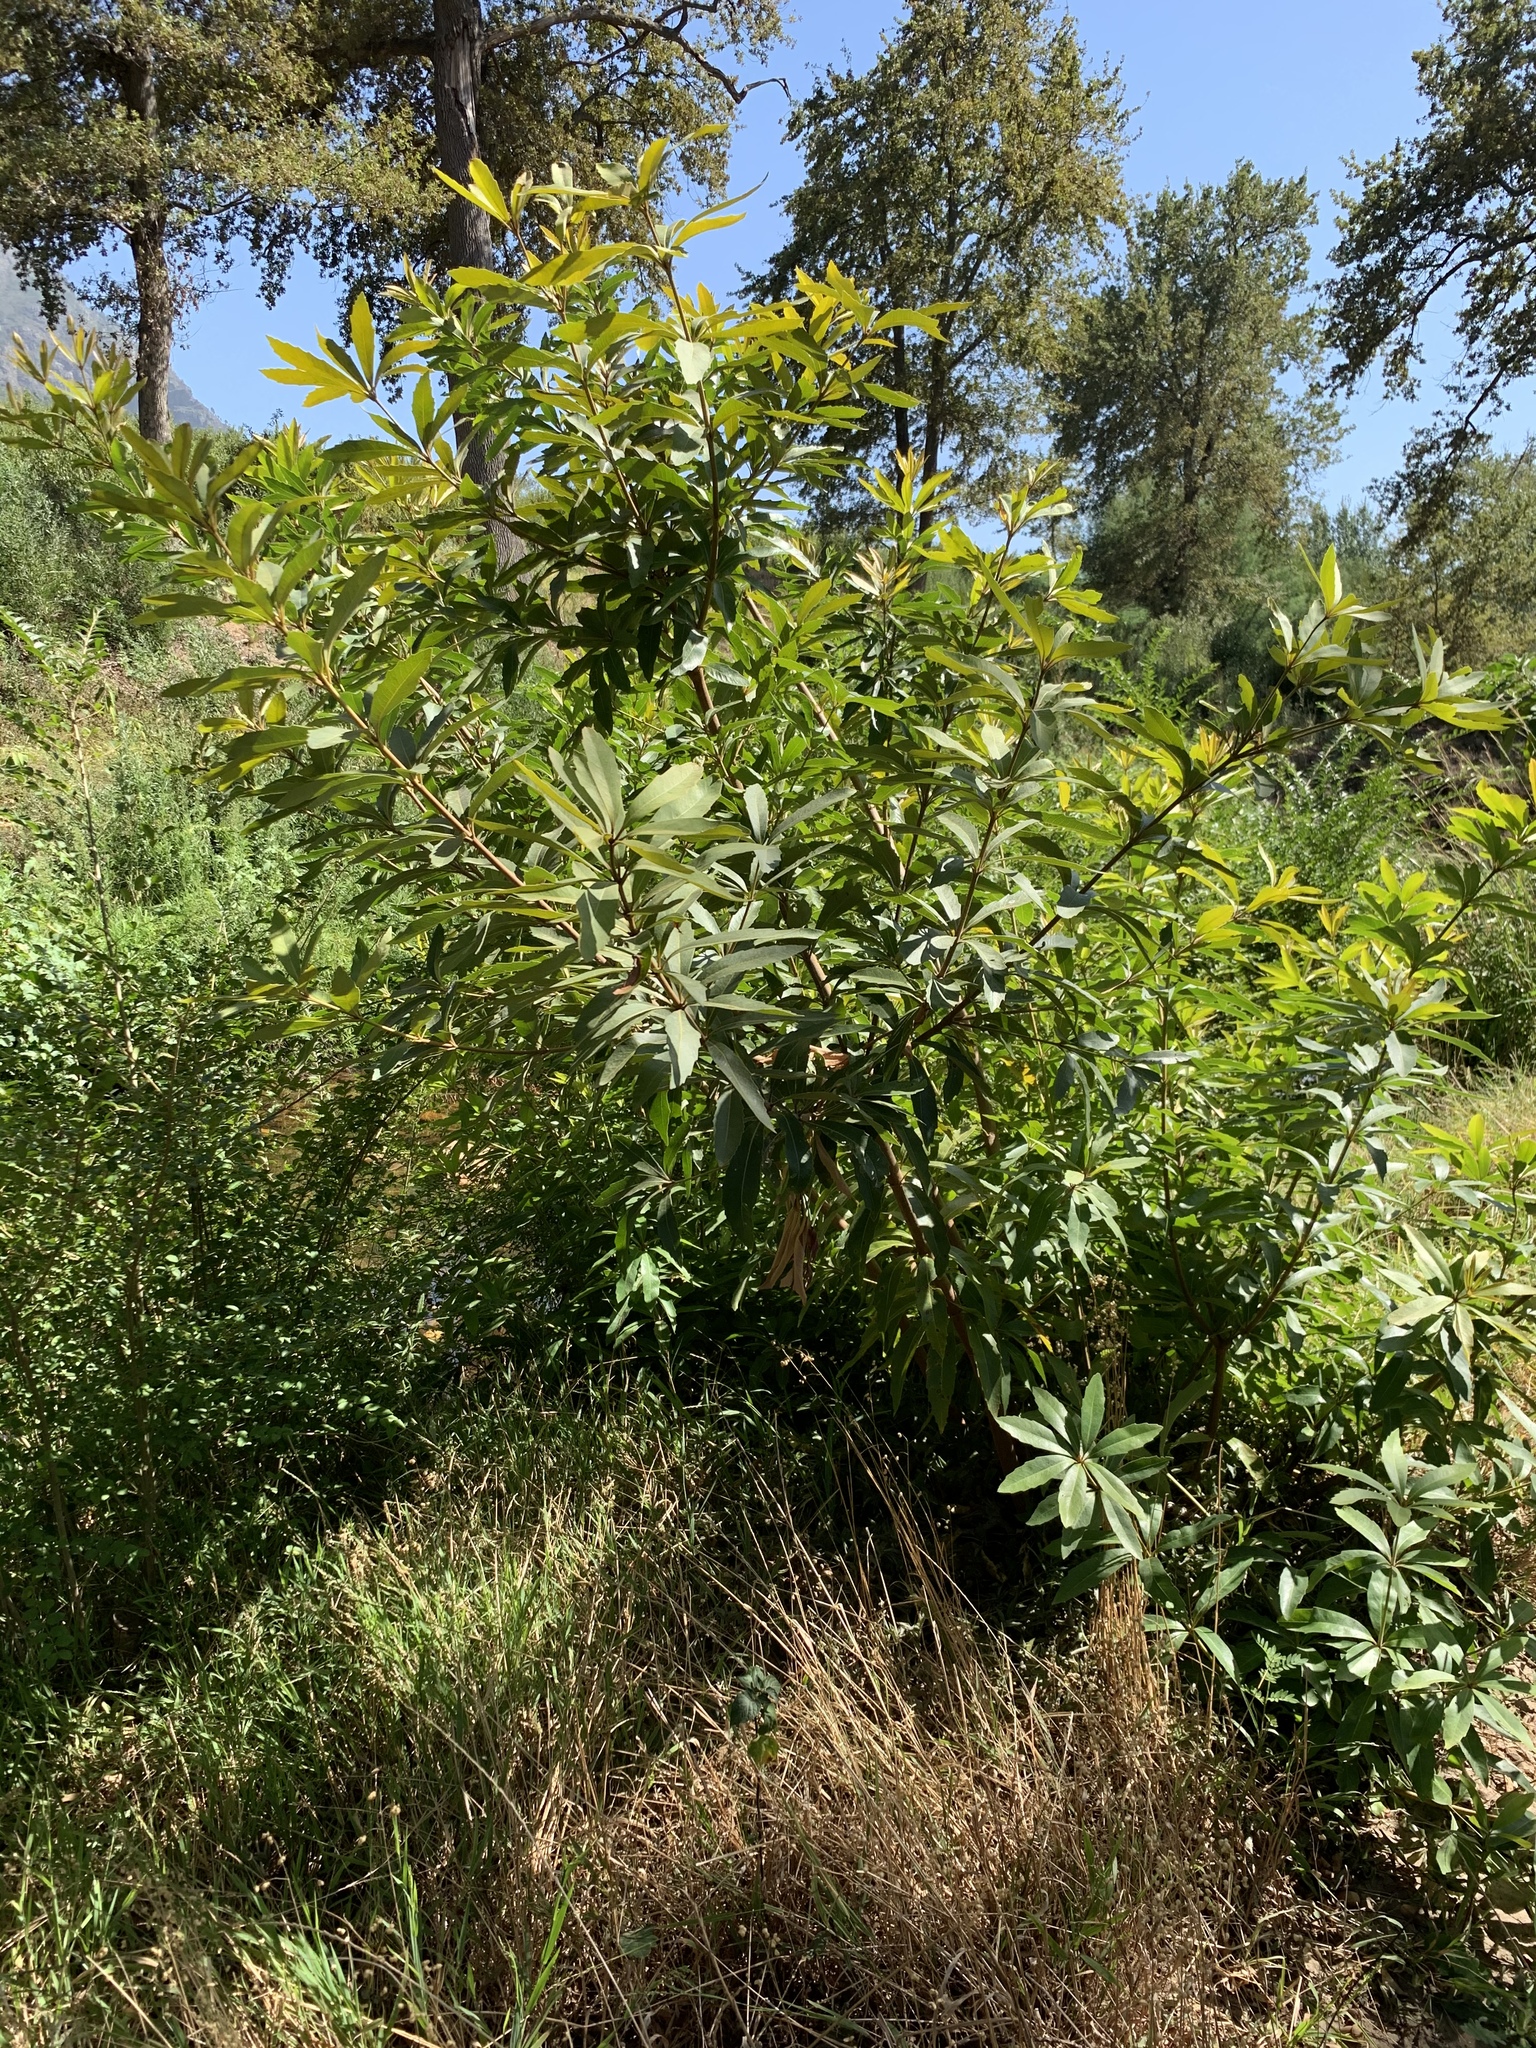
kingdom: Plantae
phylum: Tracheophyta
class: Magnoliopsida
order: Proteales
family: Proteaceae
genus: Brabejum
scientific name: Brabejum stellatifolium
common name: Wild almond
